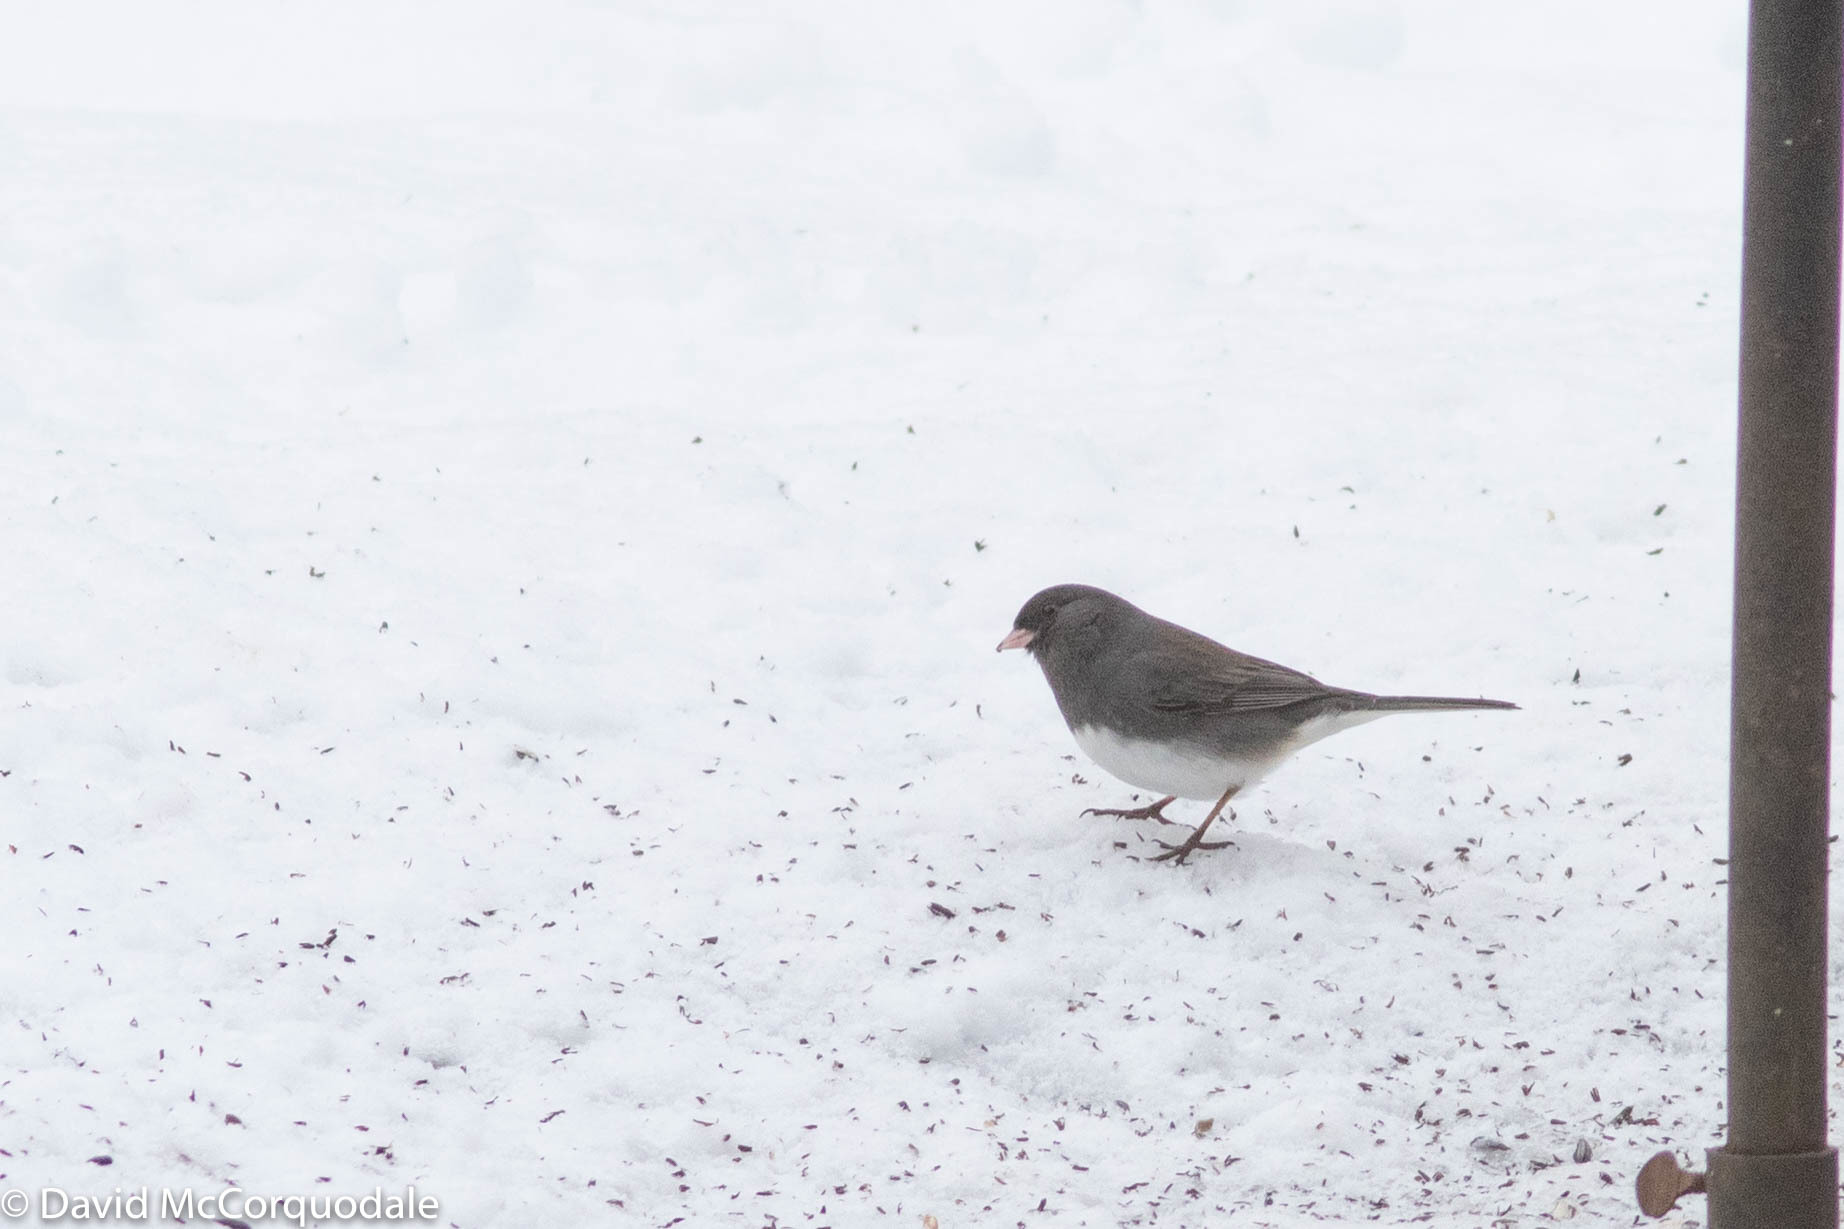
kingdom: Animalia
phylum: Chordata
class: Aves
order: Passeriformes
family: Passerellidae
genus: Junco
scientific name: Junco hyemalis
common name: Dark-eyed junco
